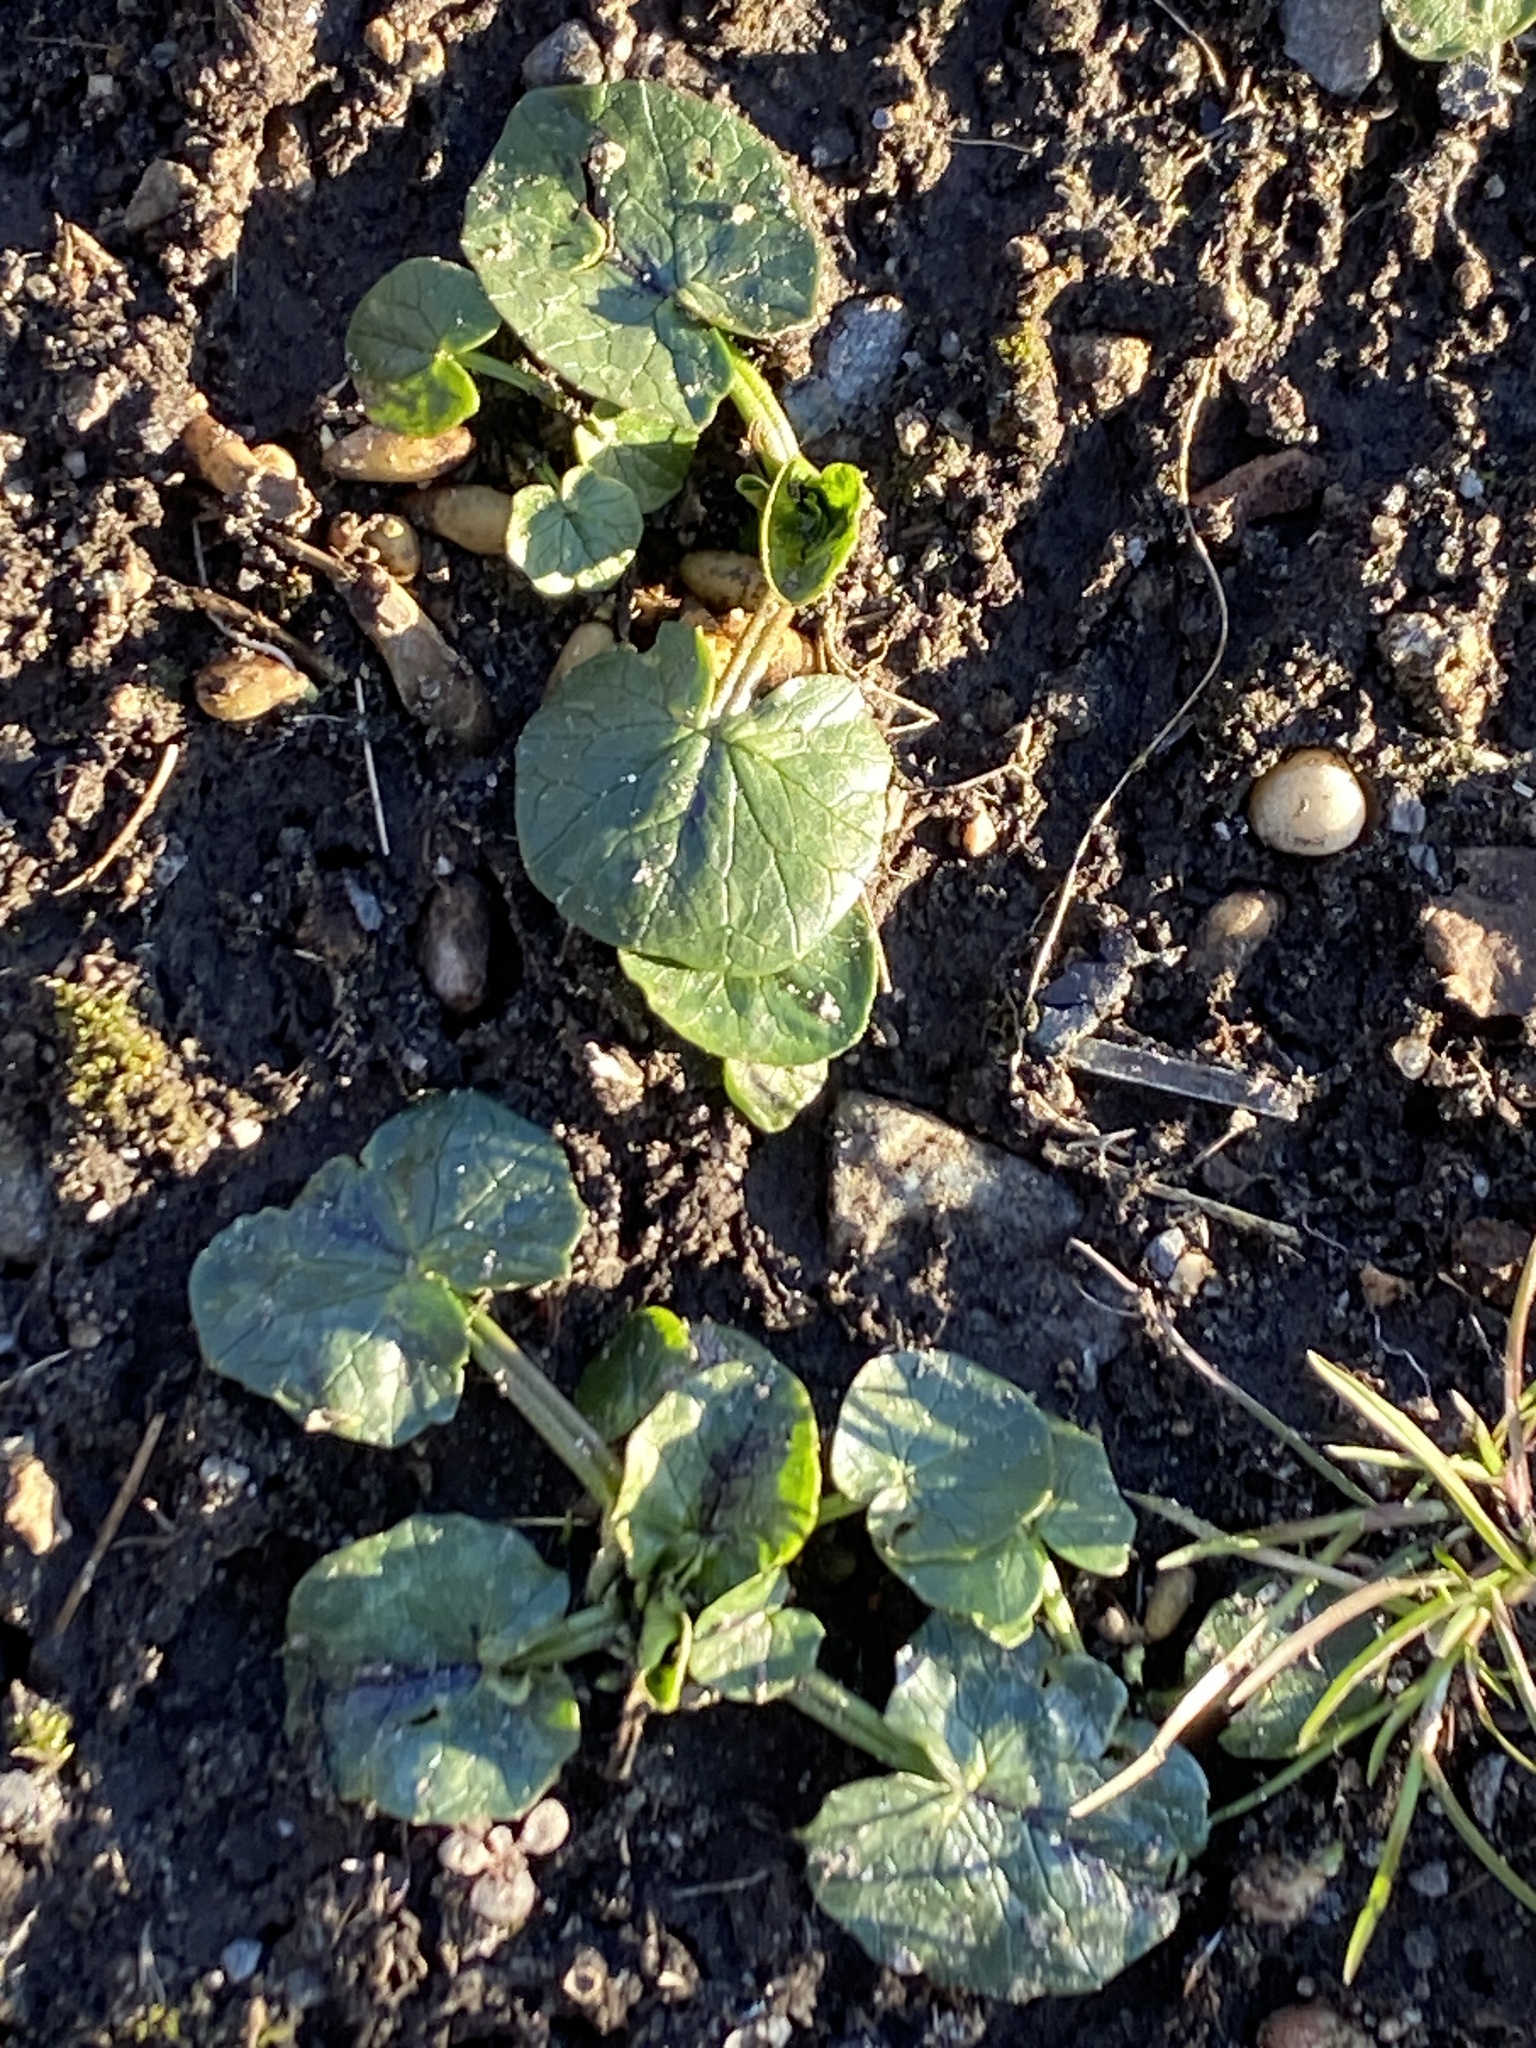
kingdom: Plantae
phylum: Tracheophyta
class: Magnoliopsida
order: Ranunculales
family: Ranunculaceae
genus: Ficaria
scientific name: Ficaria verna
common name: Lesser celandine
